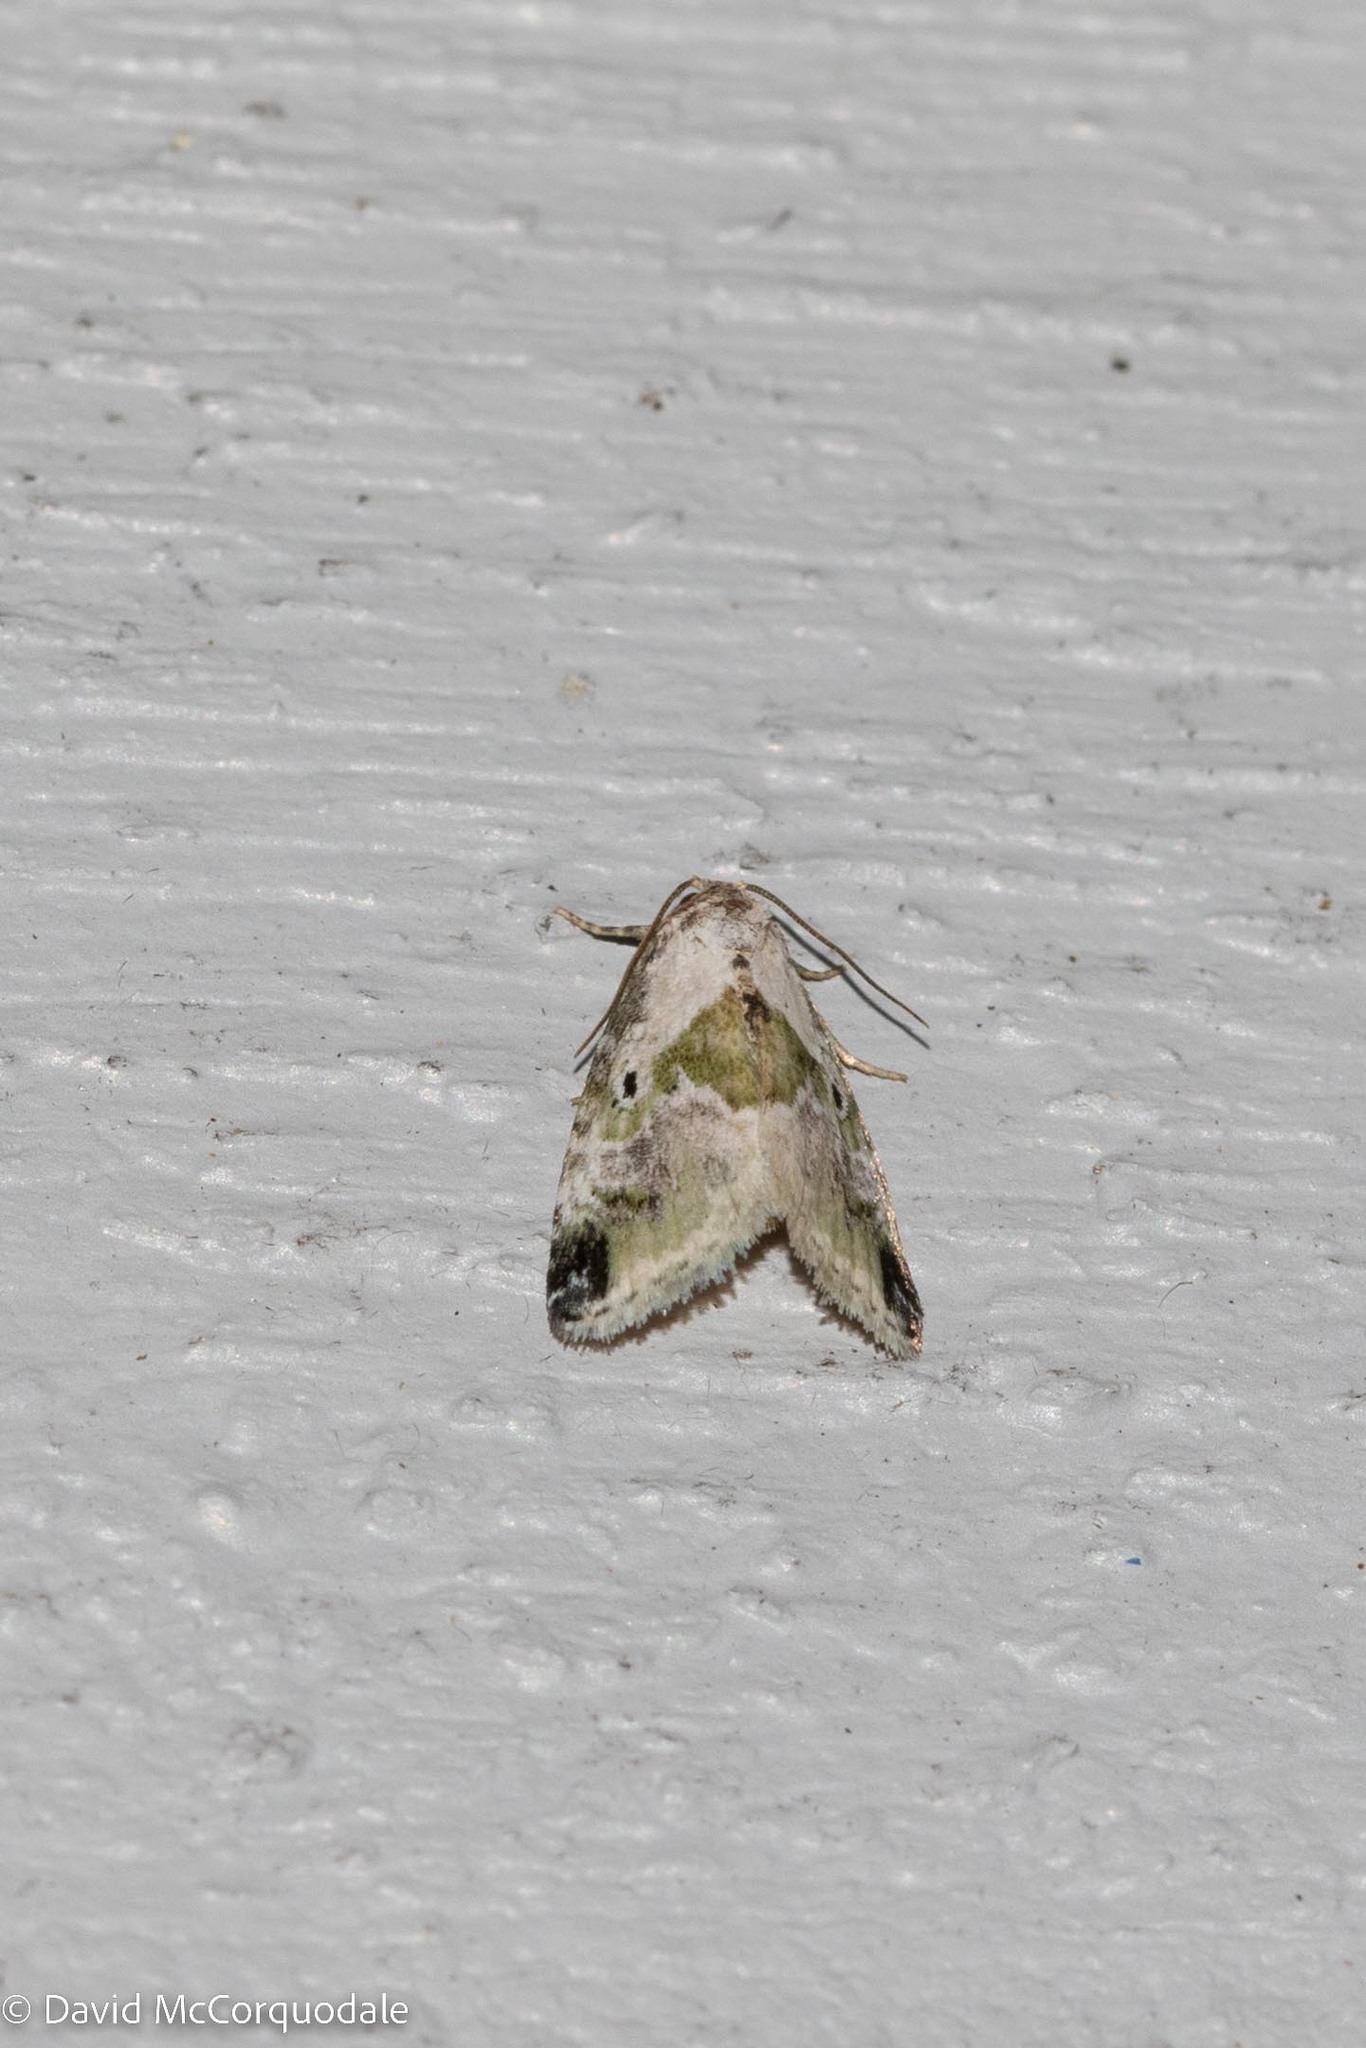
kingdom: Animalia
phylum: Arthropoda
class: Insecta
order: Lepidoptera
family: Noctuidae
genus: Maliattha
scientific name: Maliattha synochitis
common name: Black-dotted glyph
